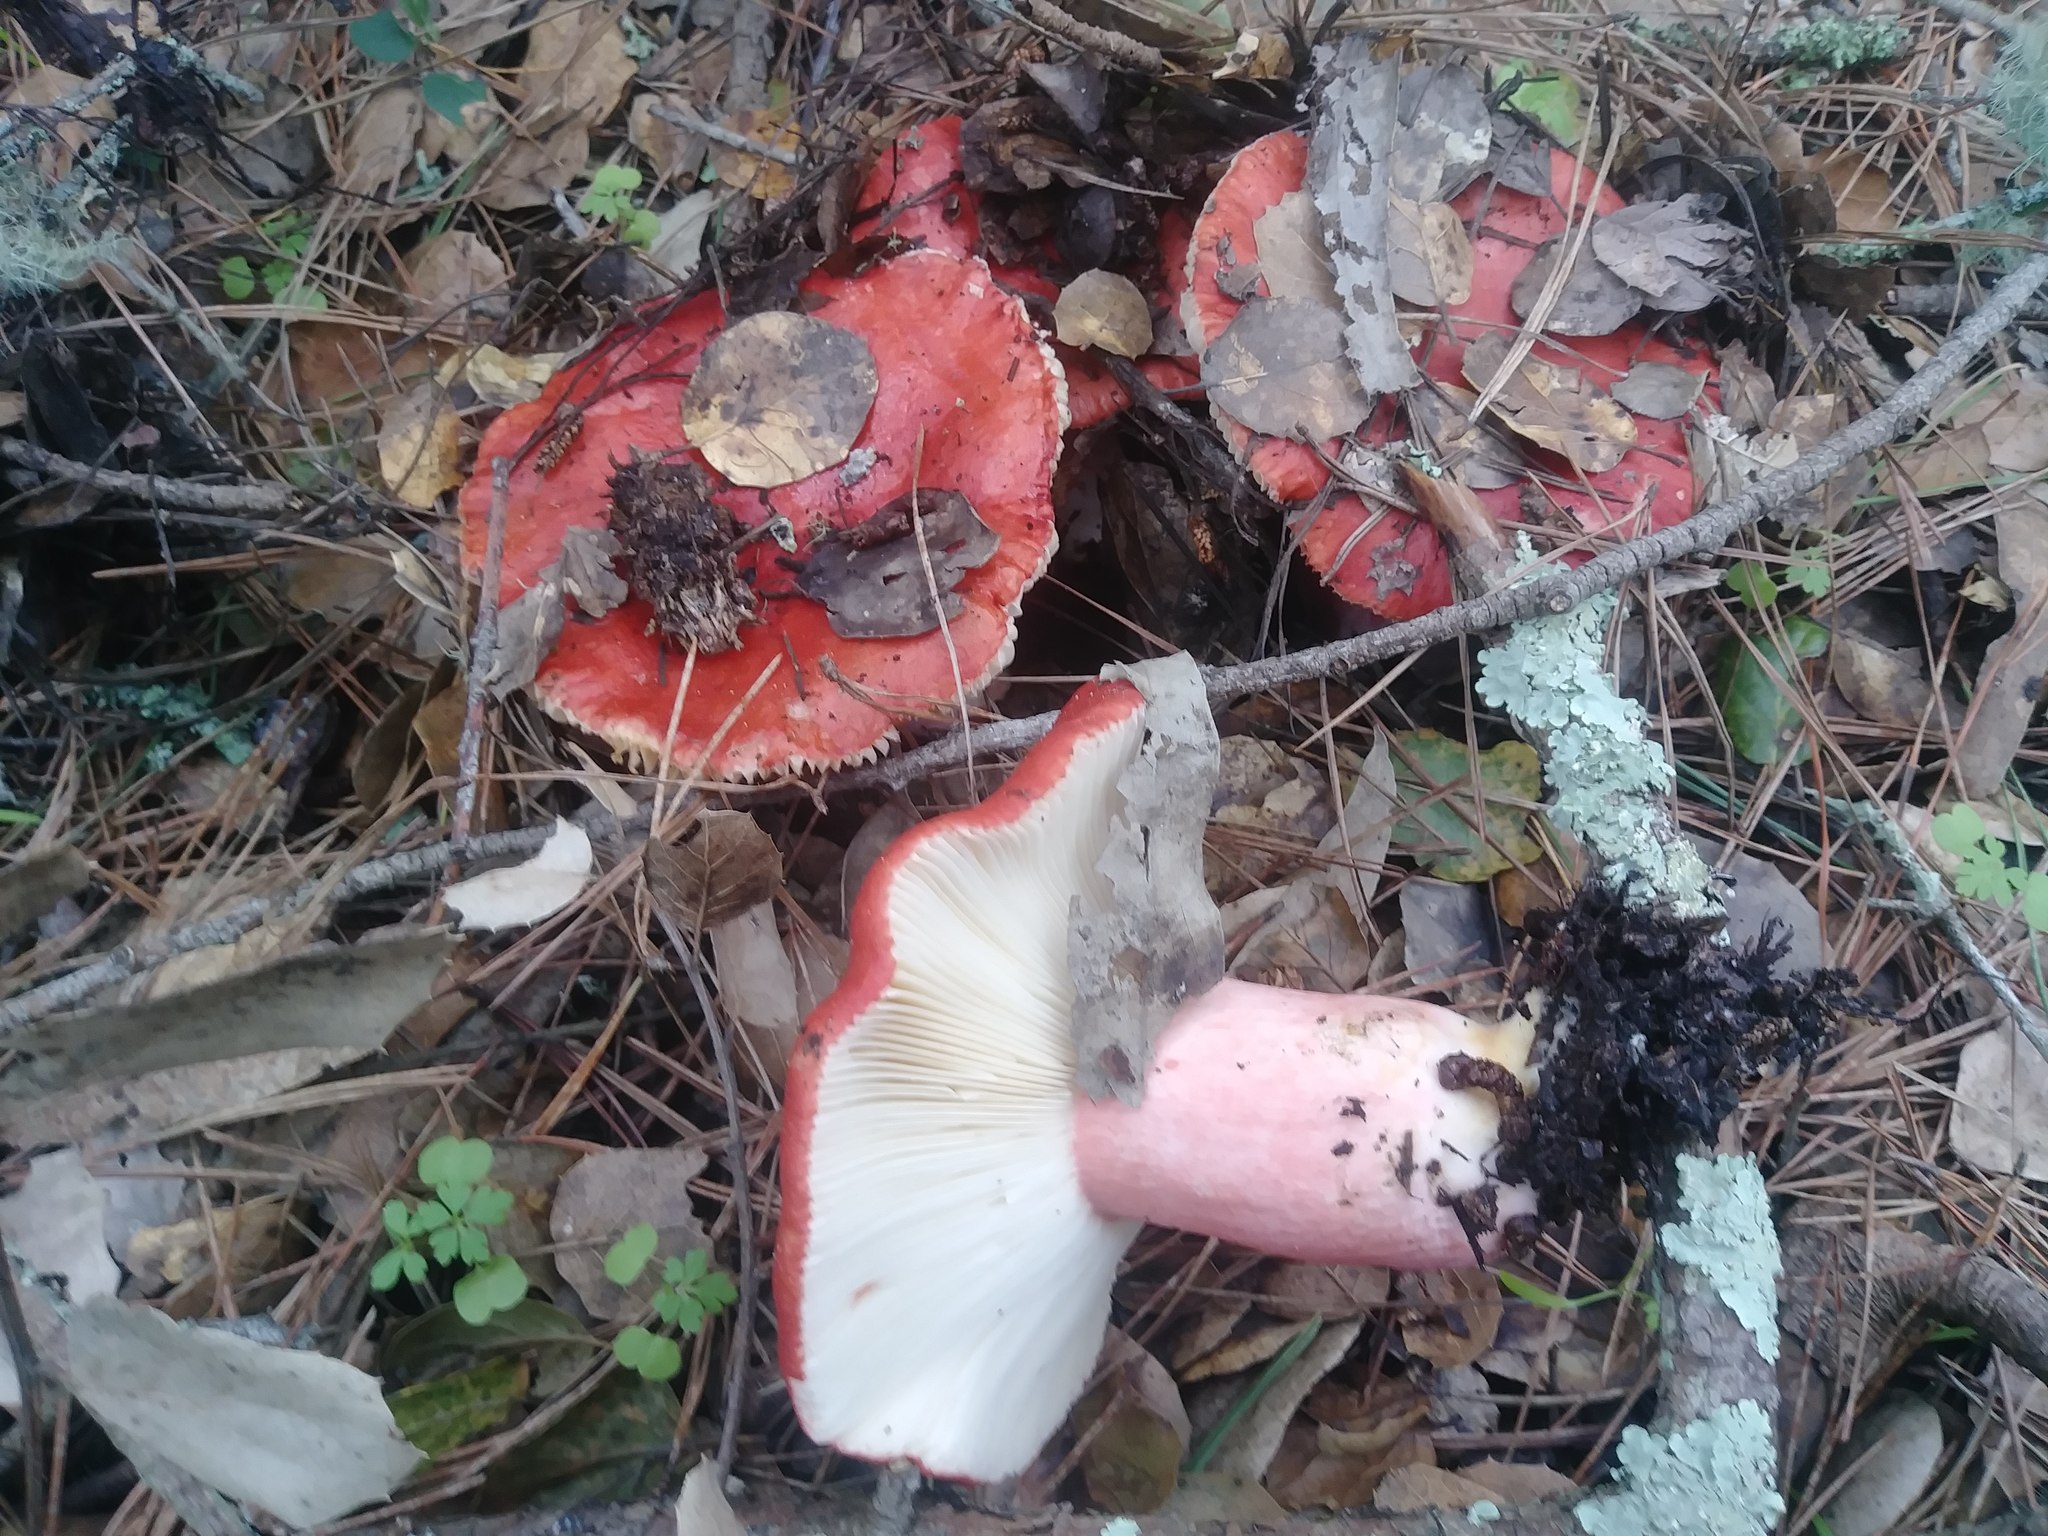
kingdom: Fungi
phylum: Basidiomycota
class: Agaricomycetes
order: Russulales
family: Russulaceae
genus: Russula
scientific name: Russula rhodocephala
